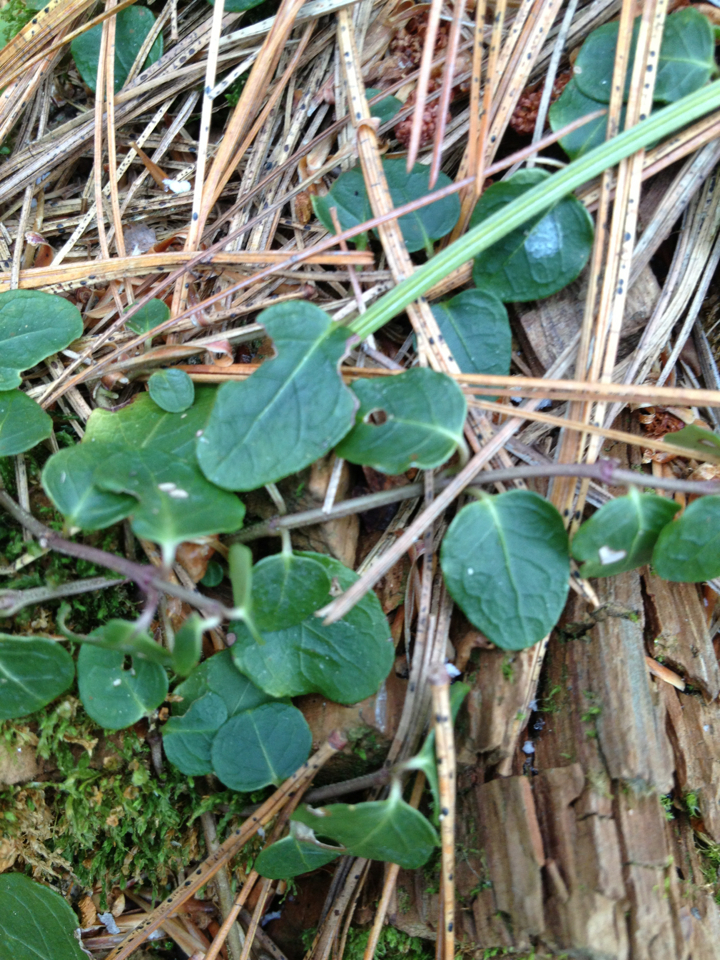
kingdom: Plantae
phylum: Tracheophyta
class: Magnoliopsida
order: Gentianales
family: Rubiaceae
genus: Mitchella
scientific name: Mitchella repens
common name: Partridge-berry
